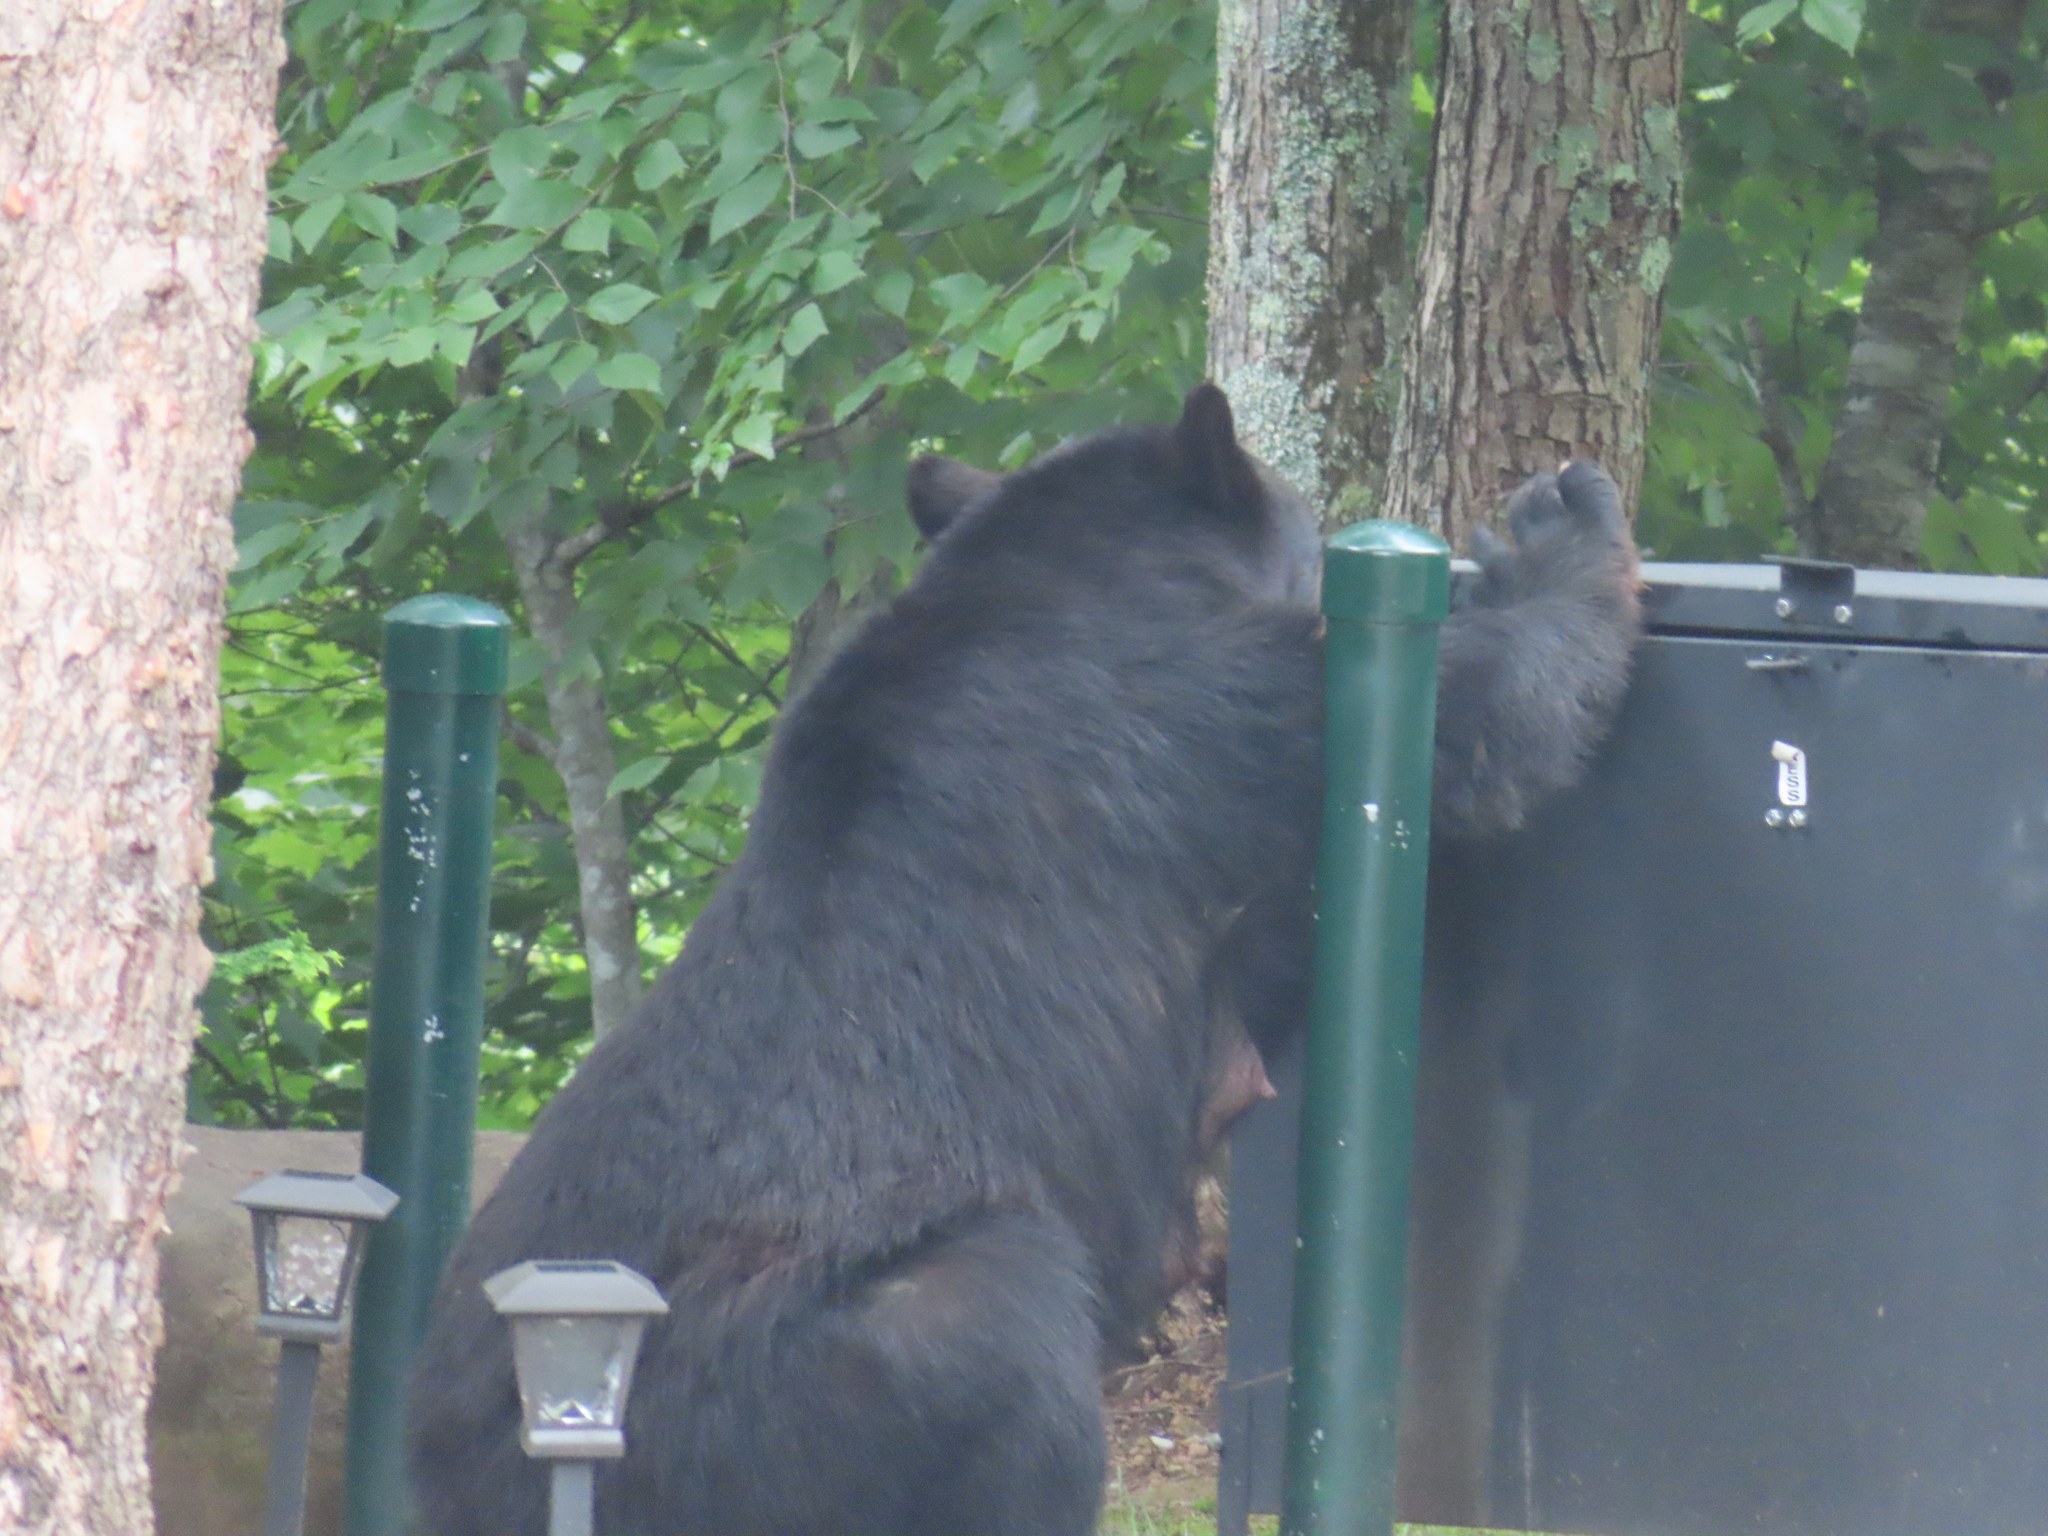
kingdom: Animalia
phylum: Chordata
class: Mammalia
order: Carnivora
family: Ursidae
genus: Ursus
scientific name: Ursus americanus
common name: American black bear
